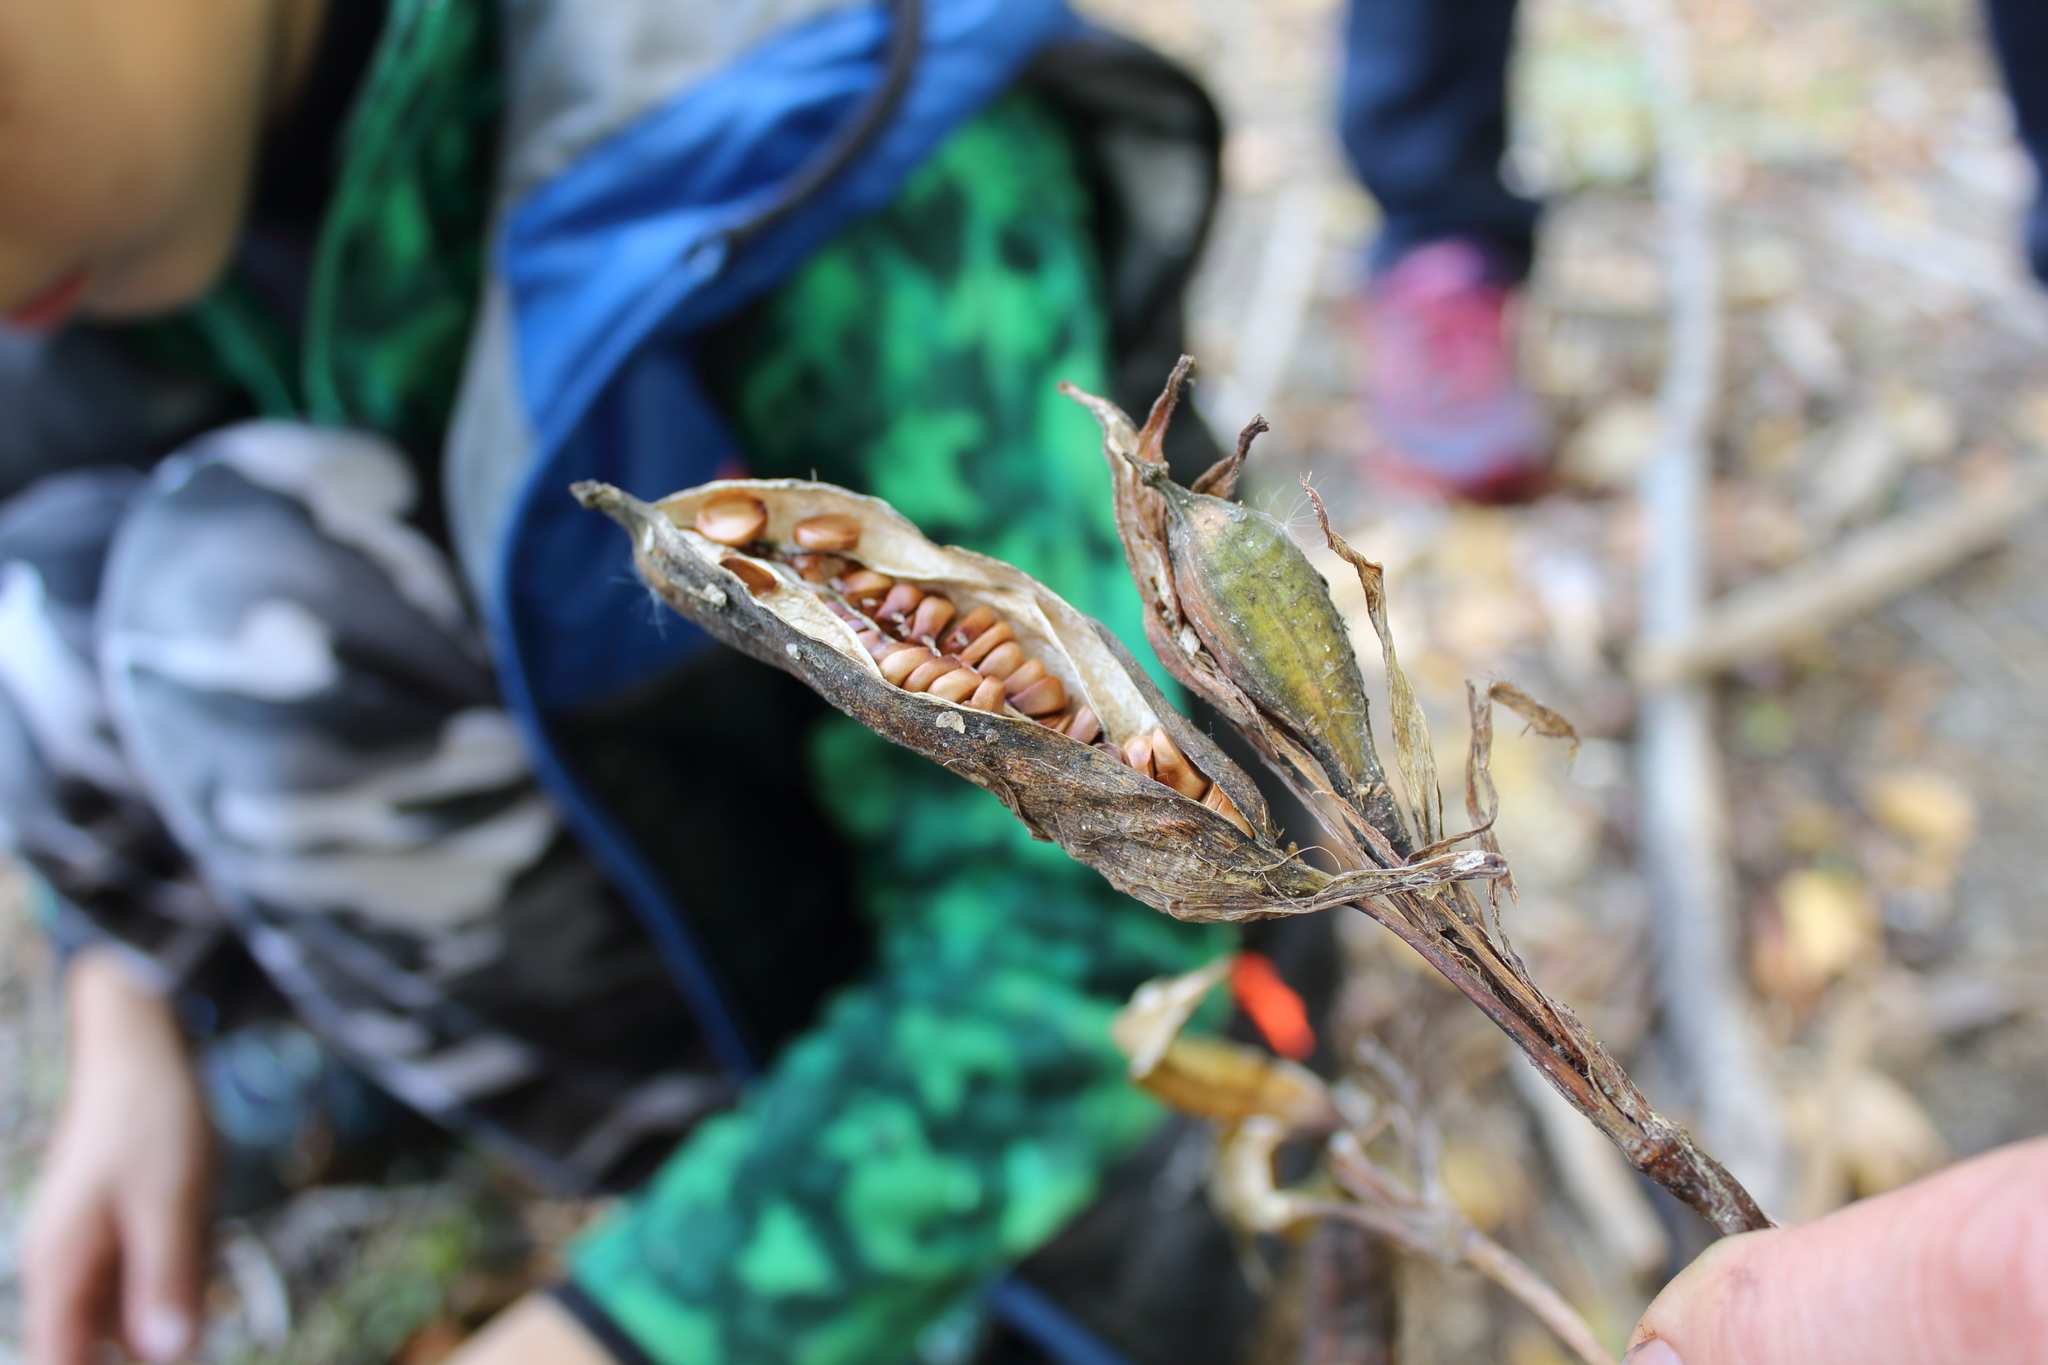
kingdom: Plantae
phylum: Tracheophyta
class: Liliopsida
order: Asparagales
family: Iridaceae
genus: Iris
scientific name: Iris pseudacorus
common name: Yellow flag
